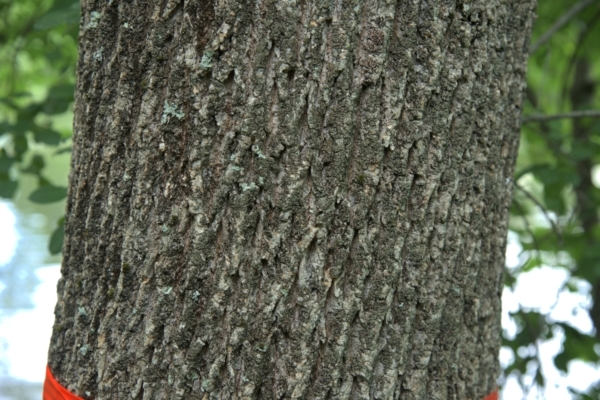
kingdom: Plantae
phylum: Tracheophyta
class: Magnoliopsida
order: Lamiales
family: Oleaceae
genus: Fraxinus
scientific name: Fraxinus americana
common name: White ash
